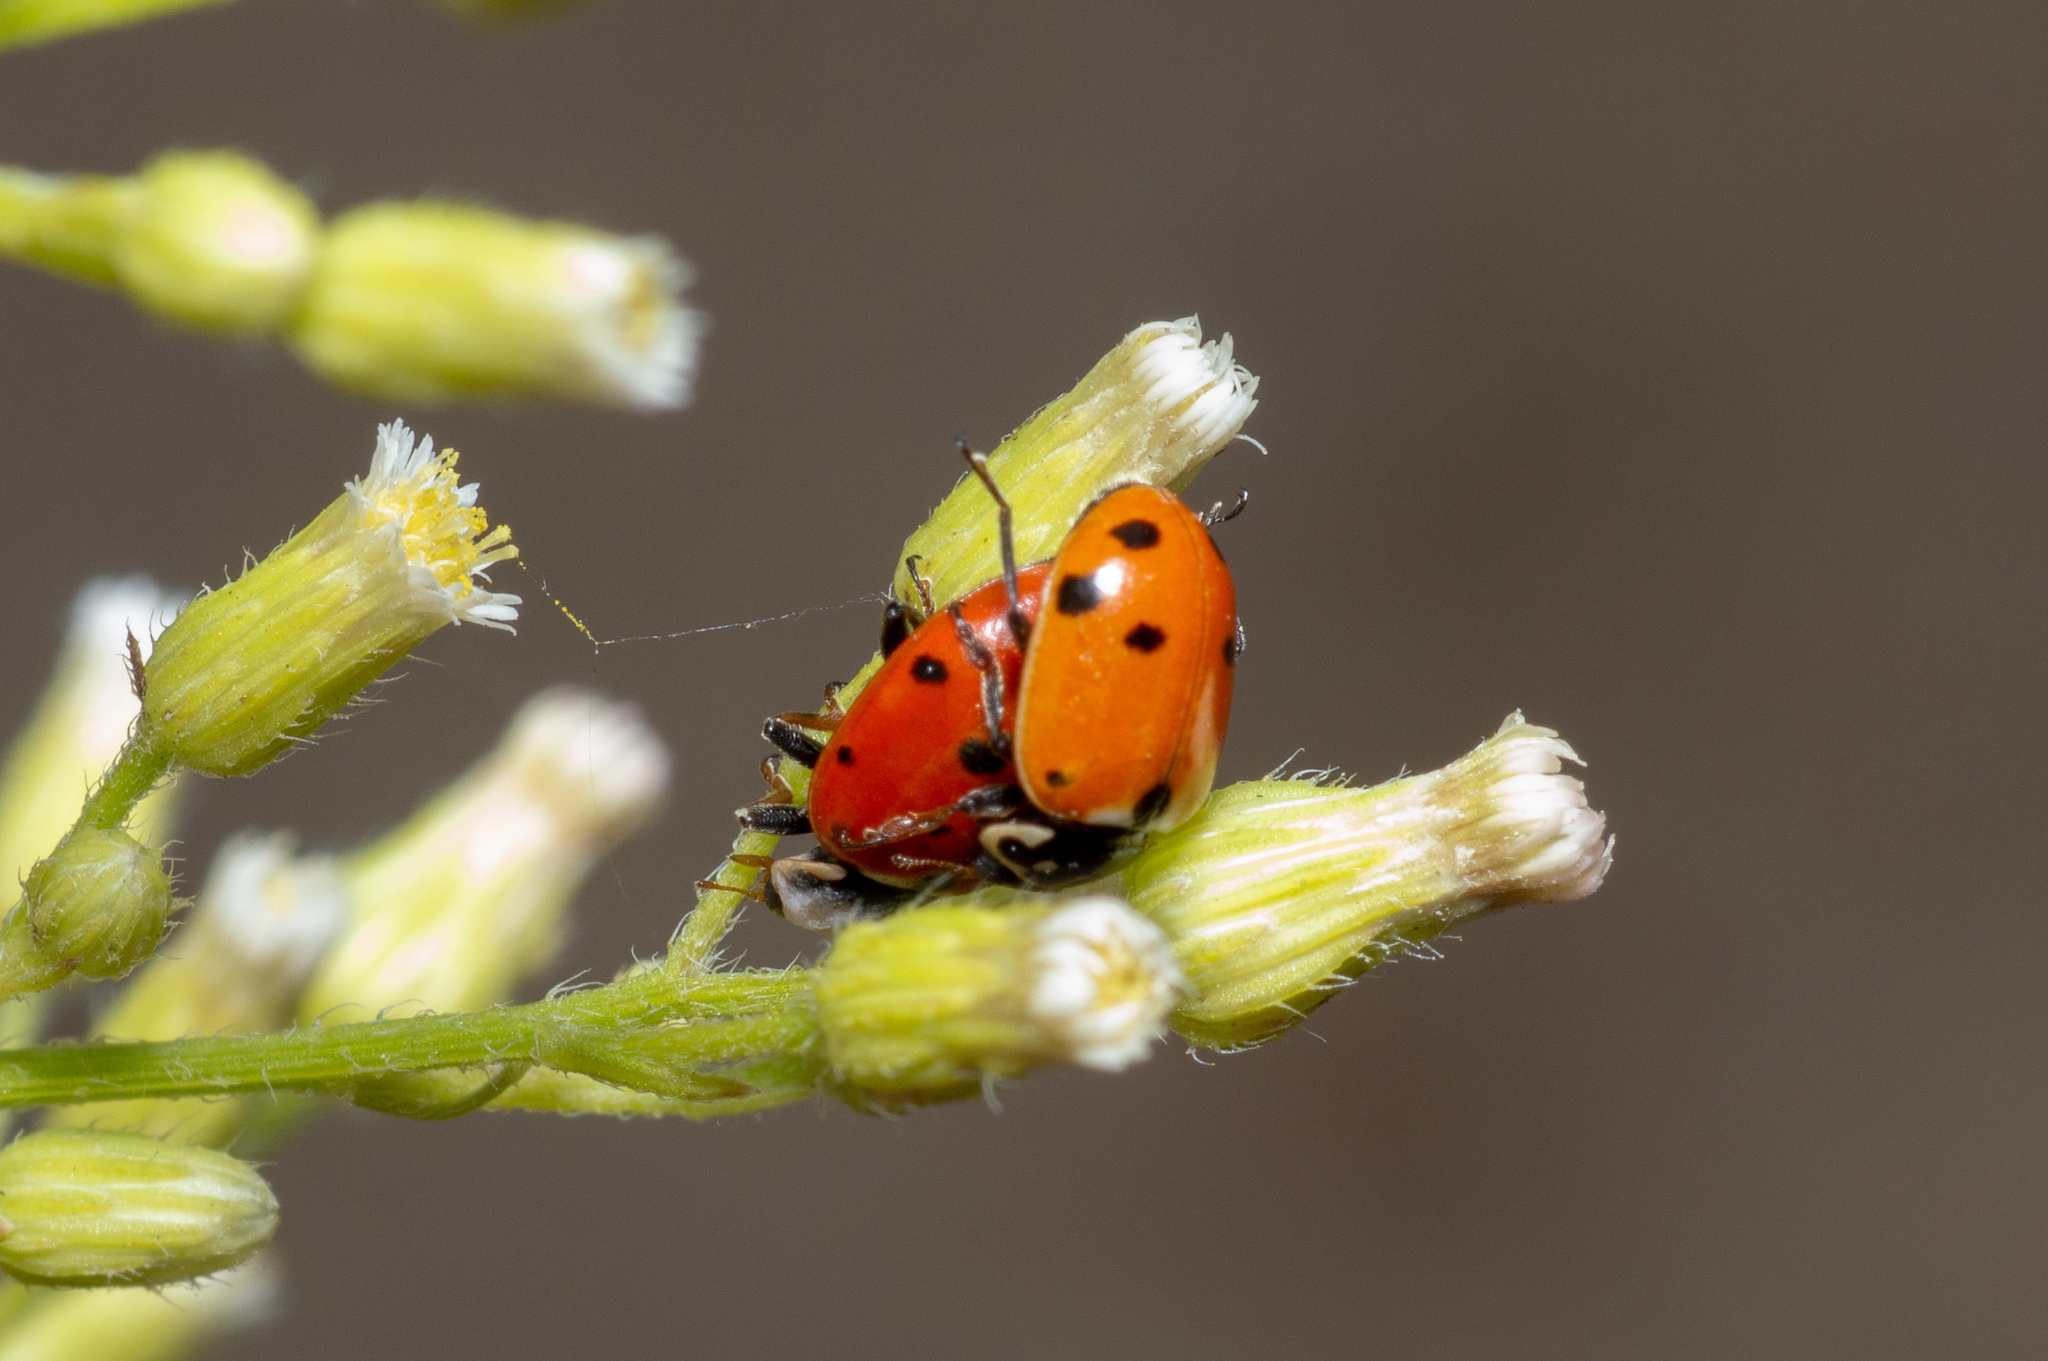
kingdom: Animalia
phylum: Arthropoda
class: Insecta
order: Coleoptera
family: Coccinellidae
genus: Hippodamia
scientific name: Hippodamia variegata
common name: Ladybird beetle
